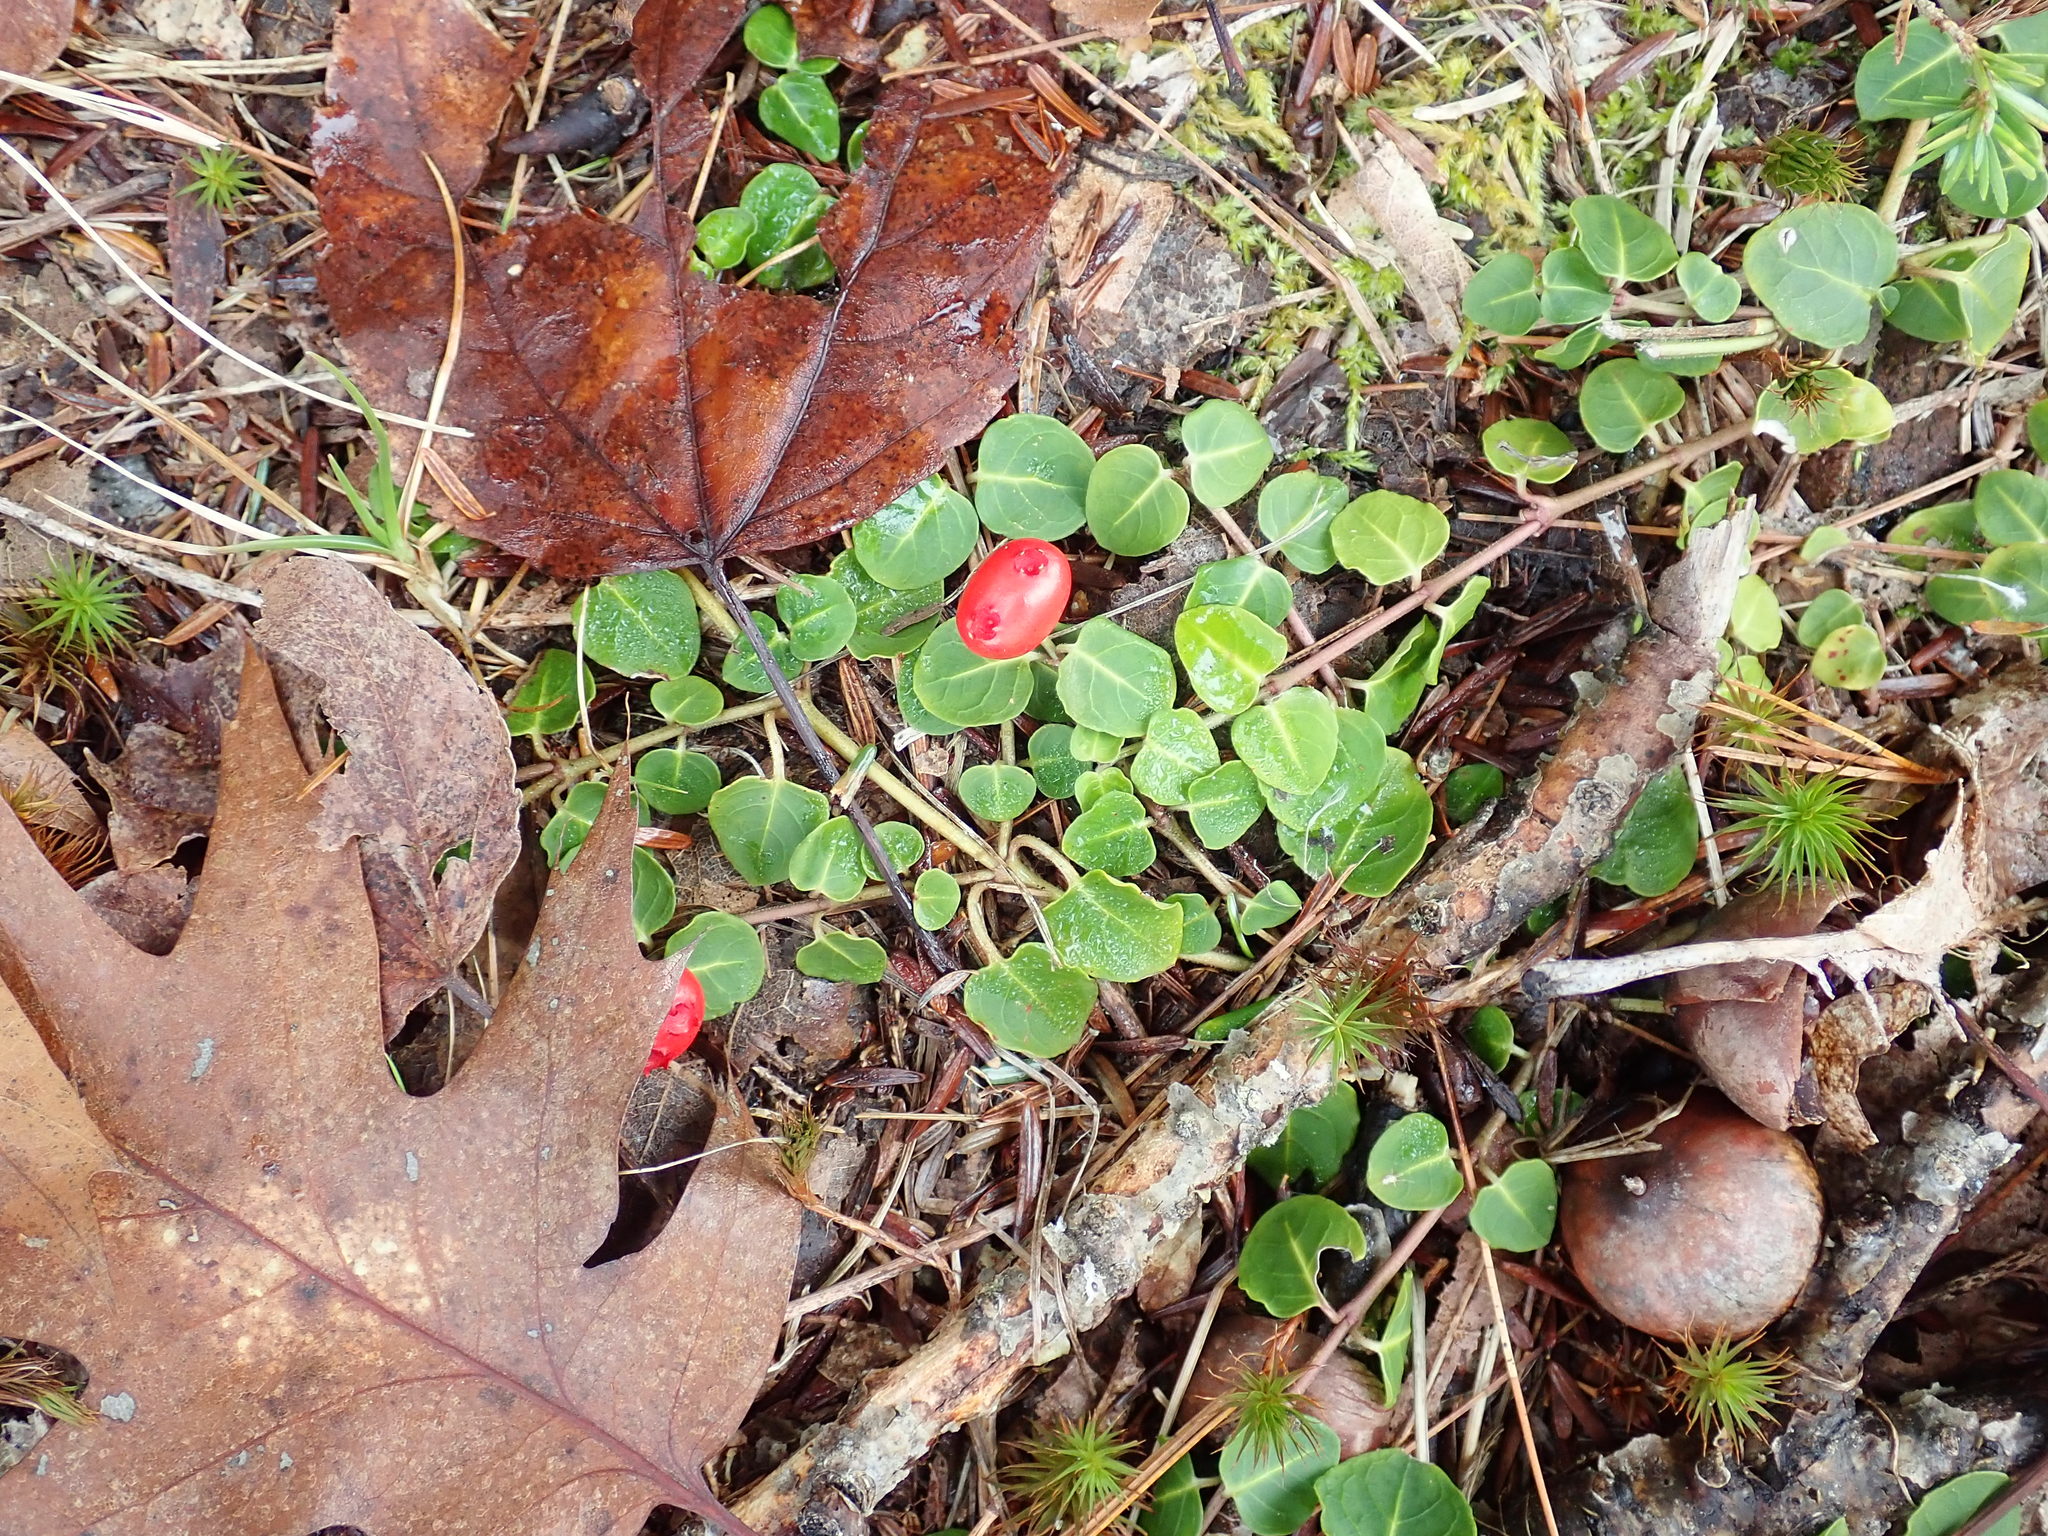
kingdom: Plantae
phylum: Tracheophyta
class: Magnoliopsida
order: Gentianales
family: Rubiaceae
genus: Mitchella
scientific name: Mitchella repens
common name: Partridge-berry
